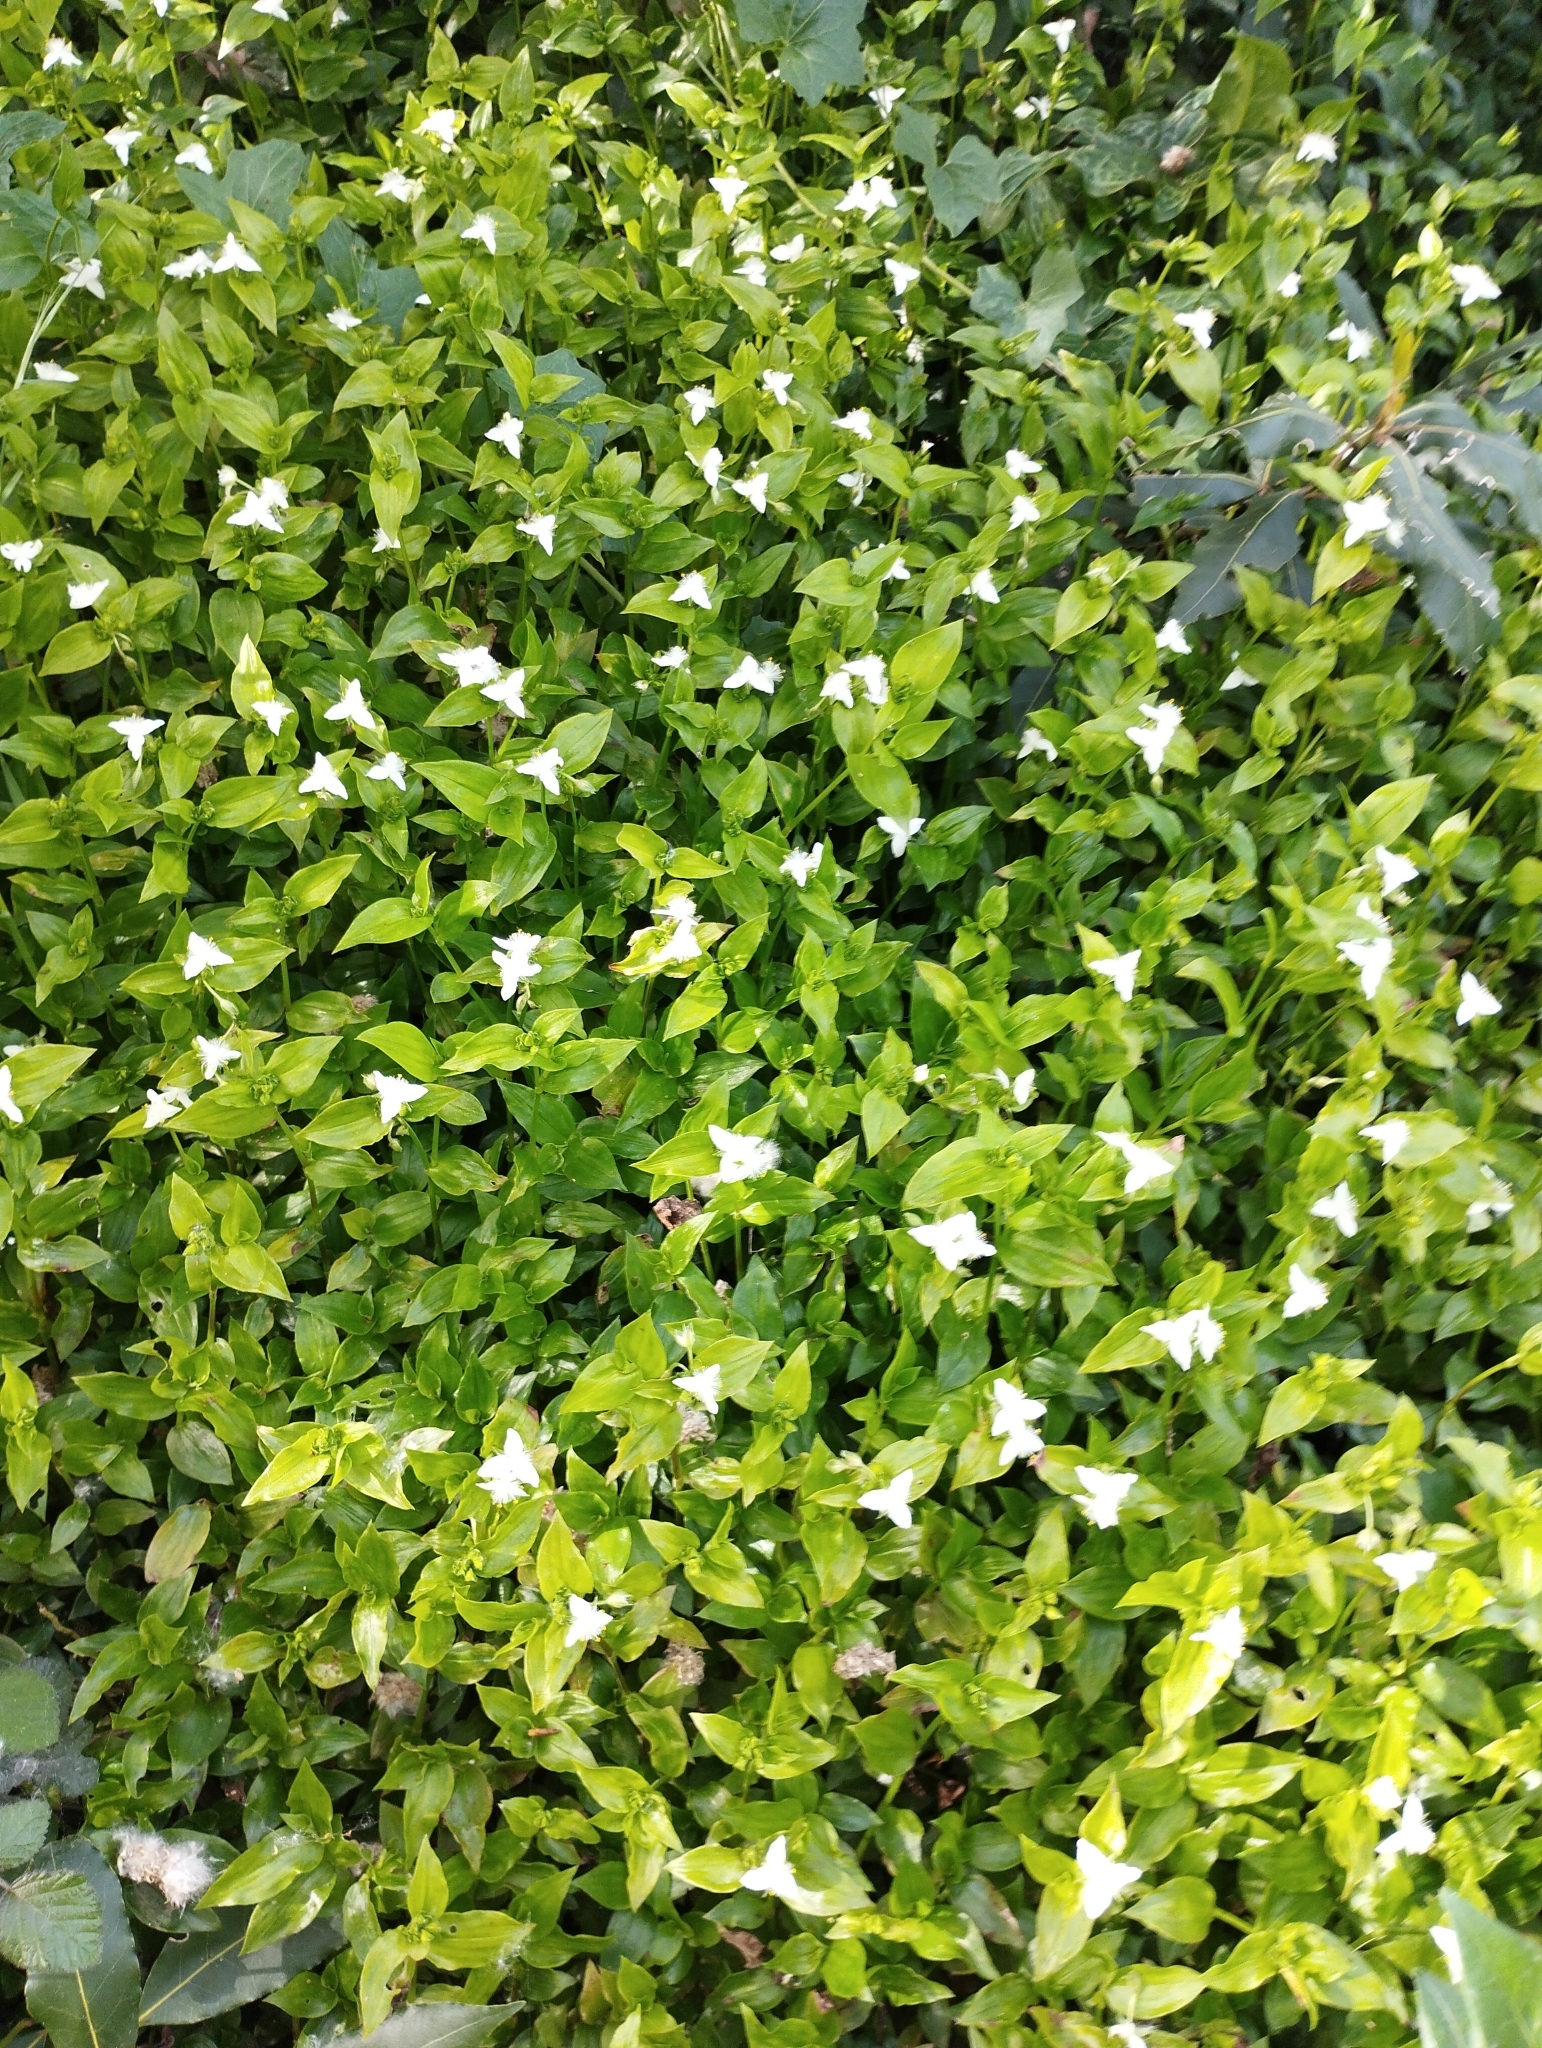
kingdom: Plantae
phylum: Tracheophyta
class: Liliopsida
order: Commelinales
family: Commelinaceae
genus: Tradescantia
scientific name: Tradescantia fluminensis
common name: Wandering-jew
